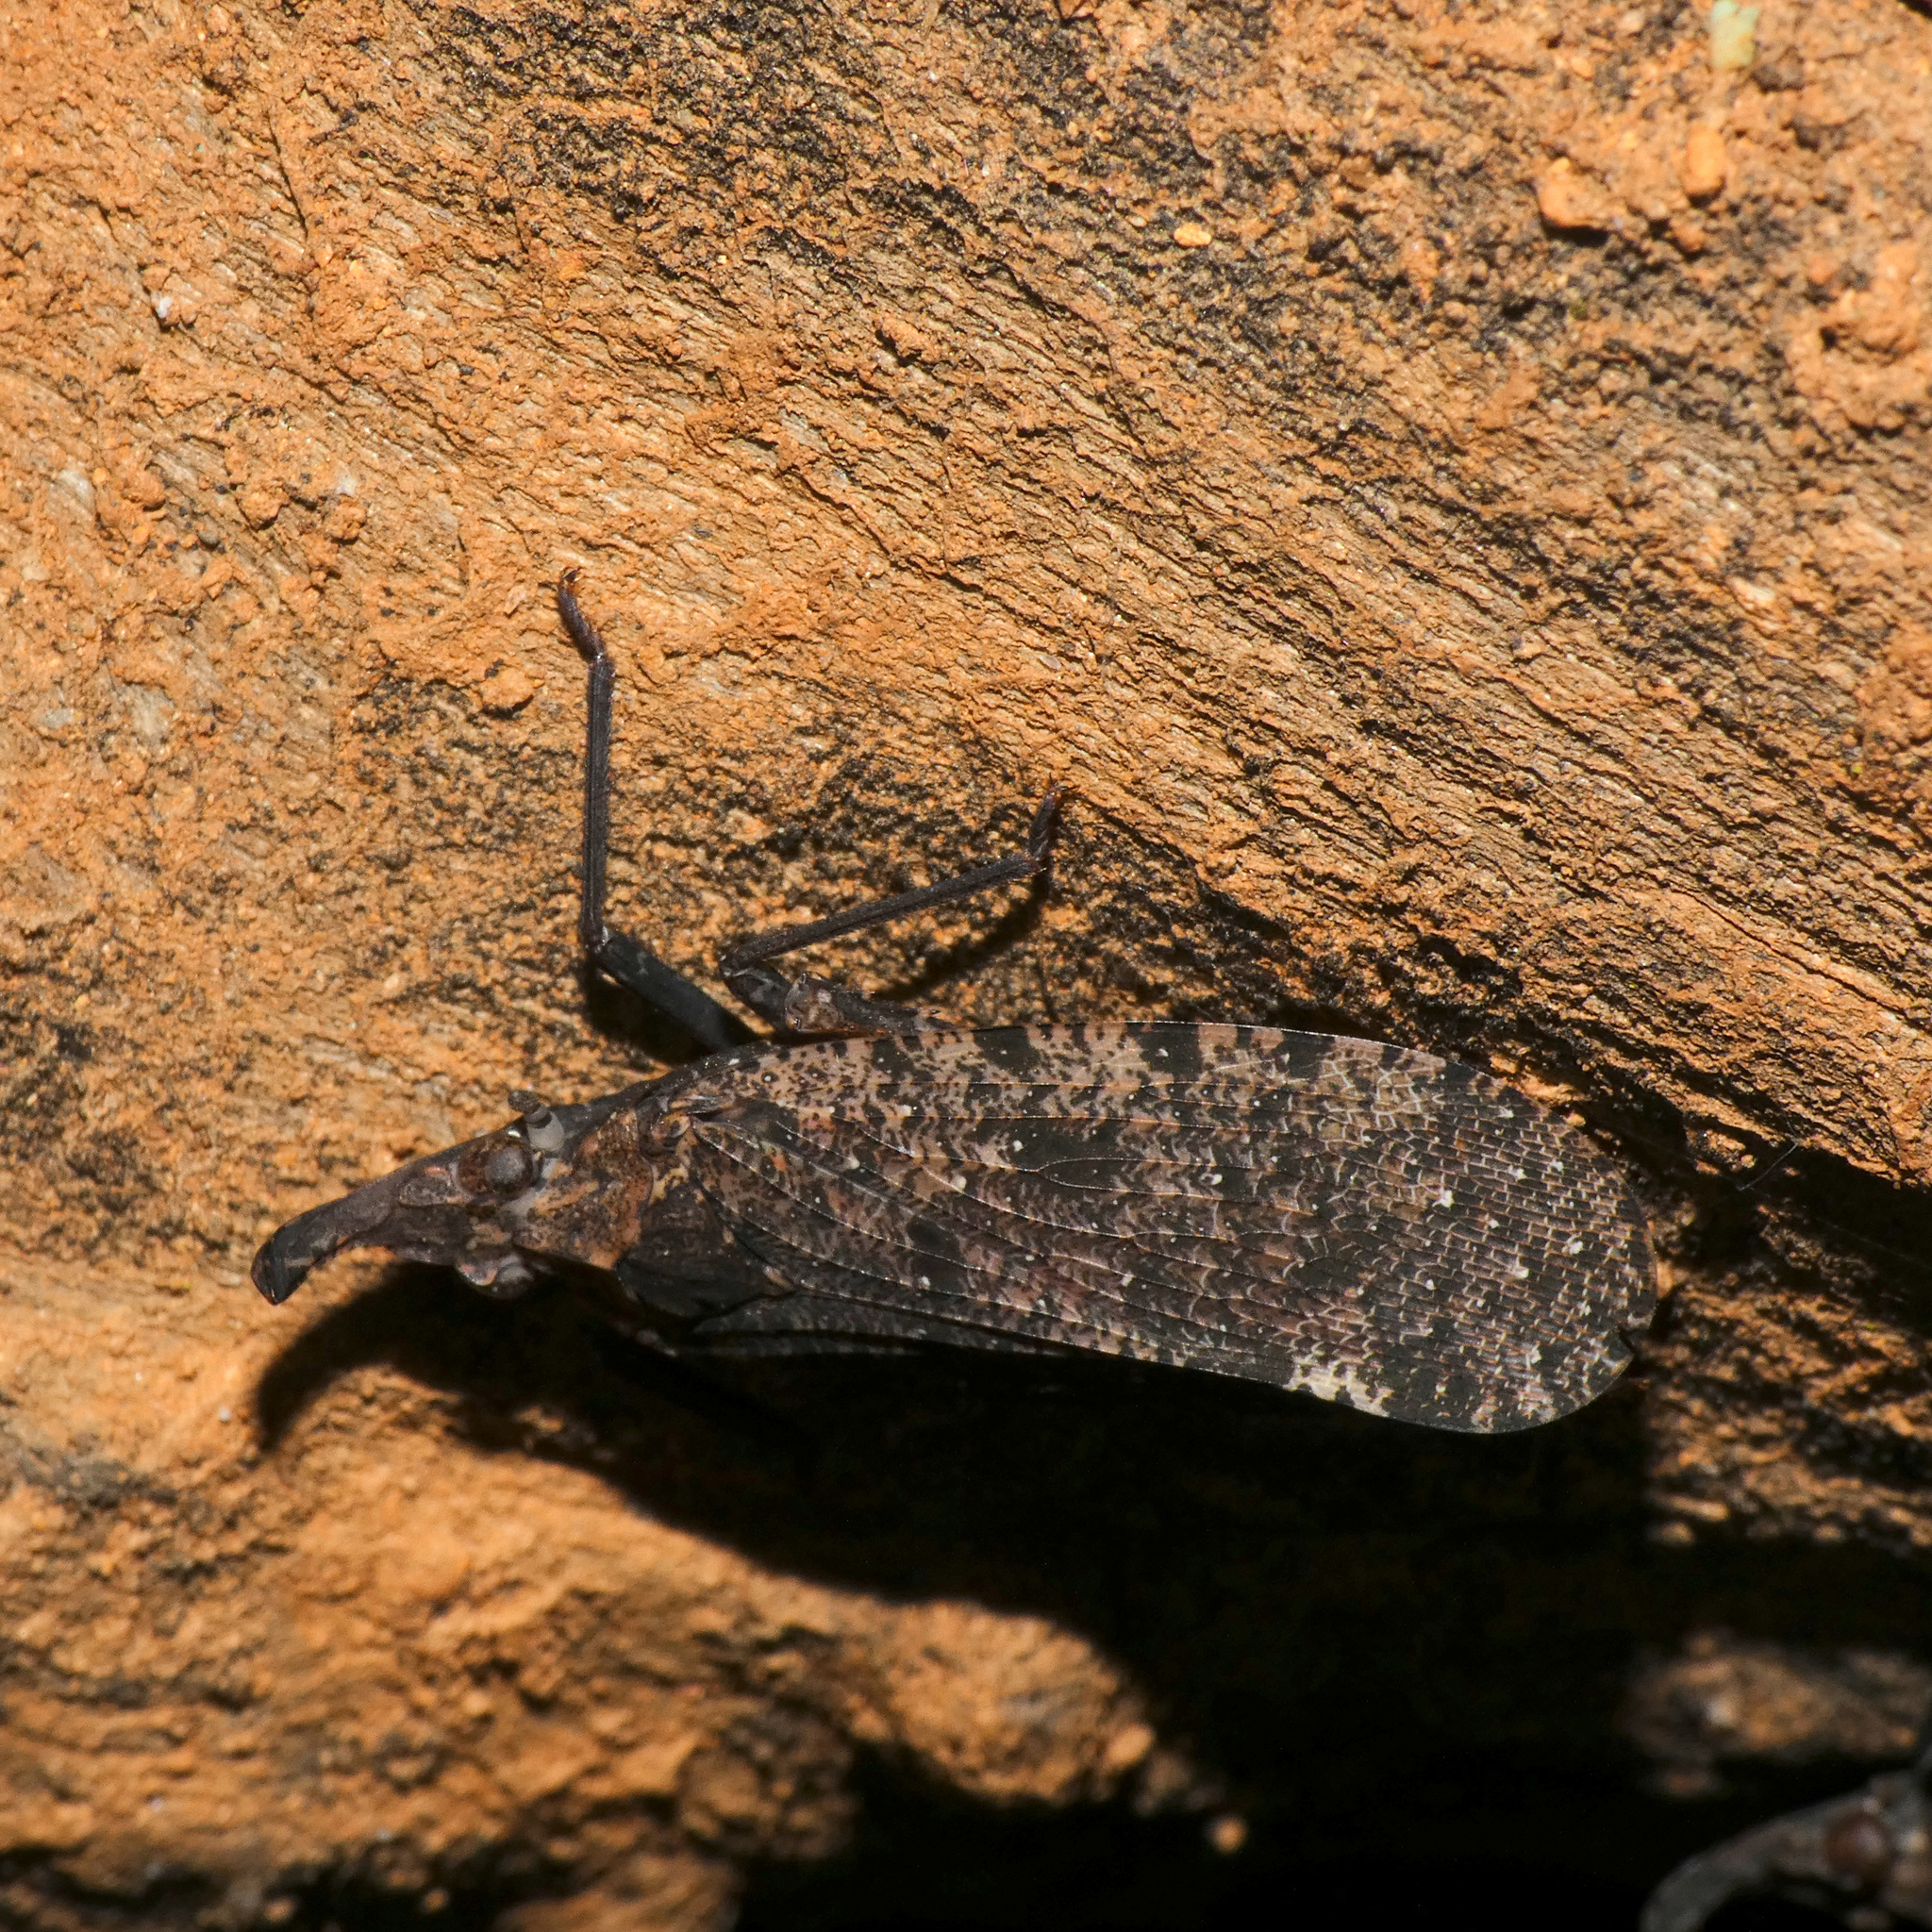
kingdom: Animalia
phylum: Arthropoda
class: Insecta
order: Hemiptera
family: Fulgoridae
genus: Druentia
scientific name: Druentia sicca
